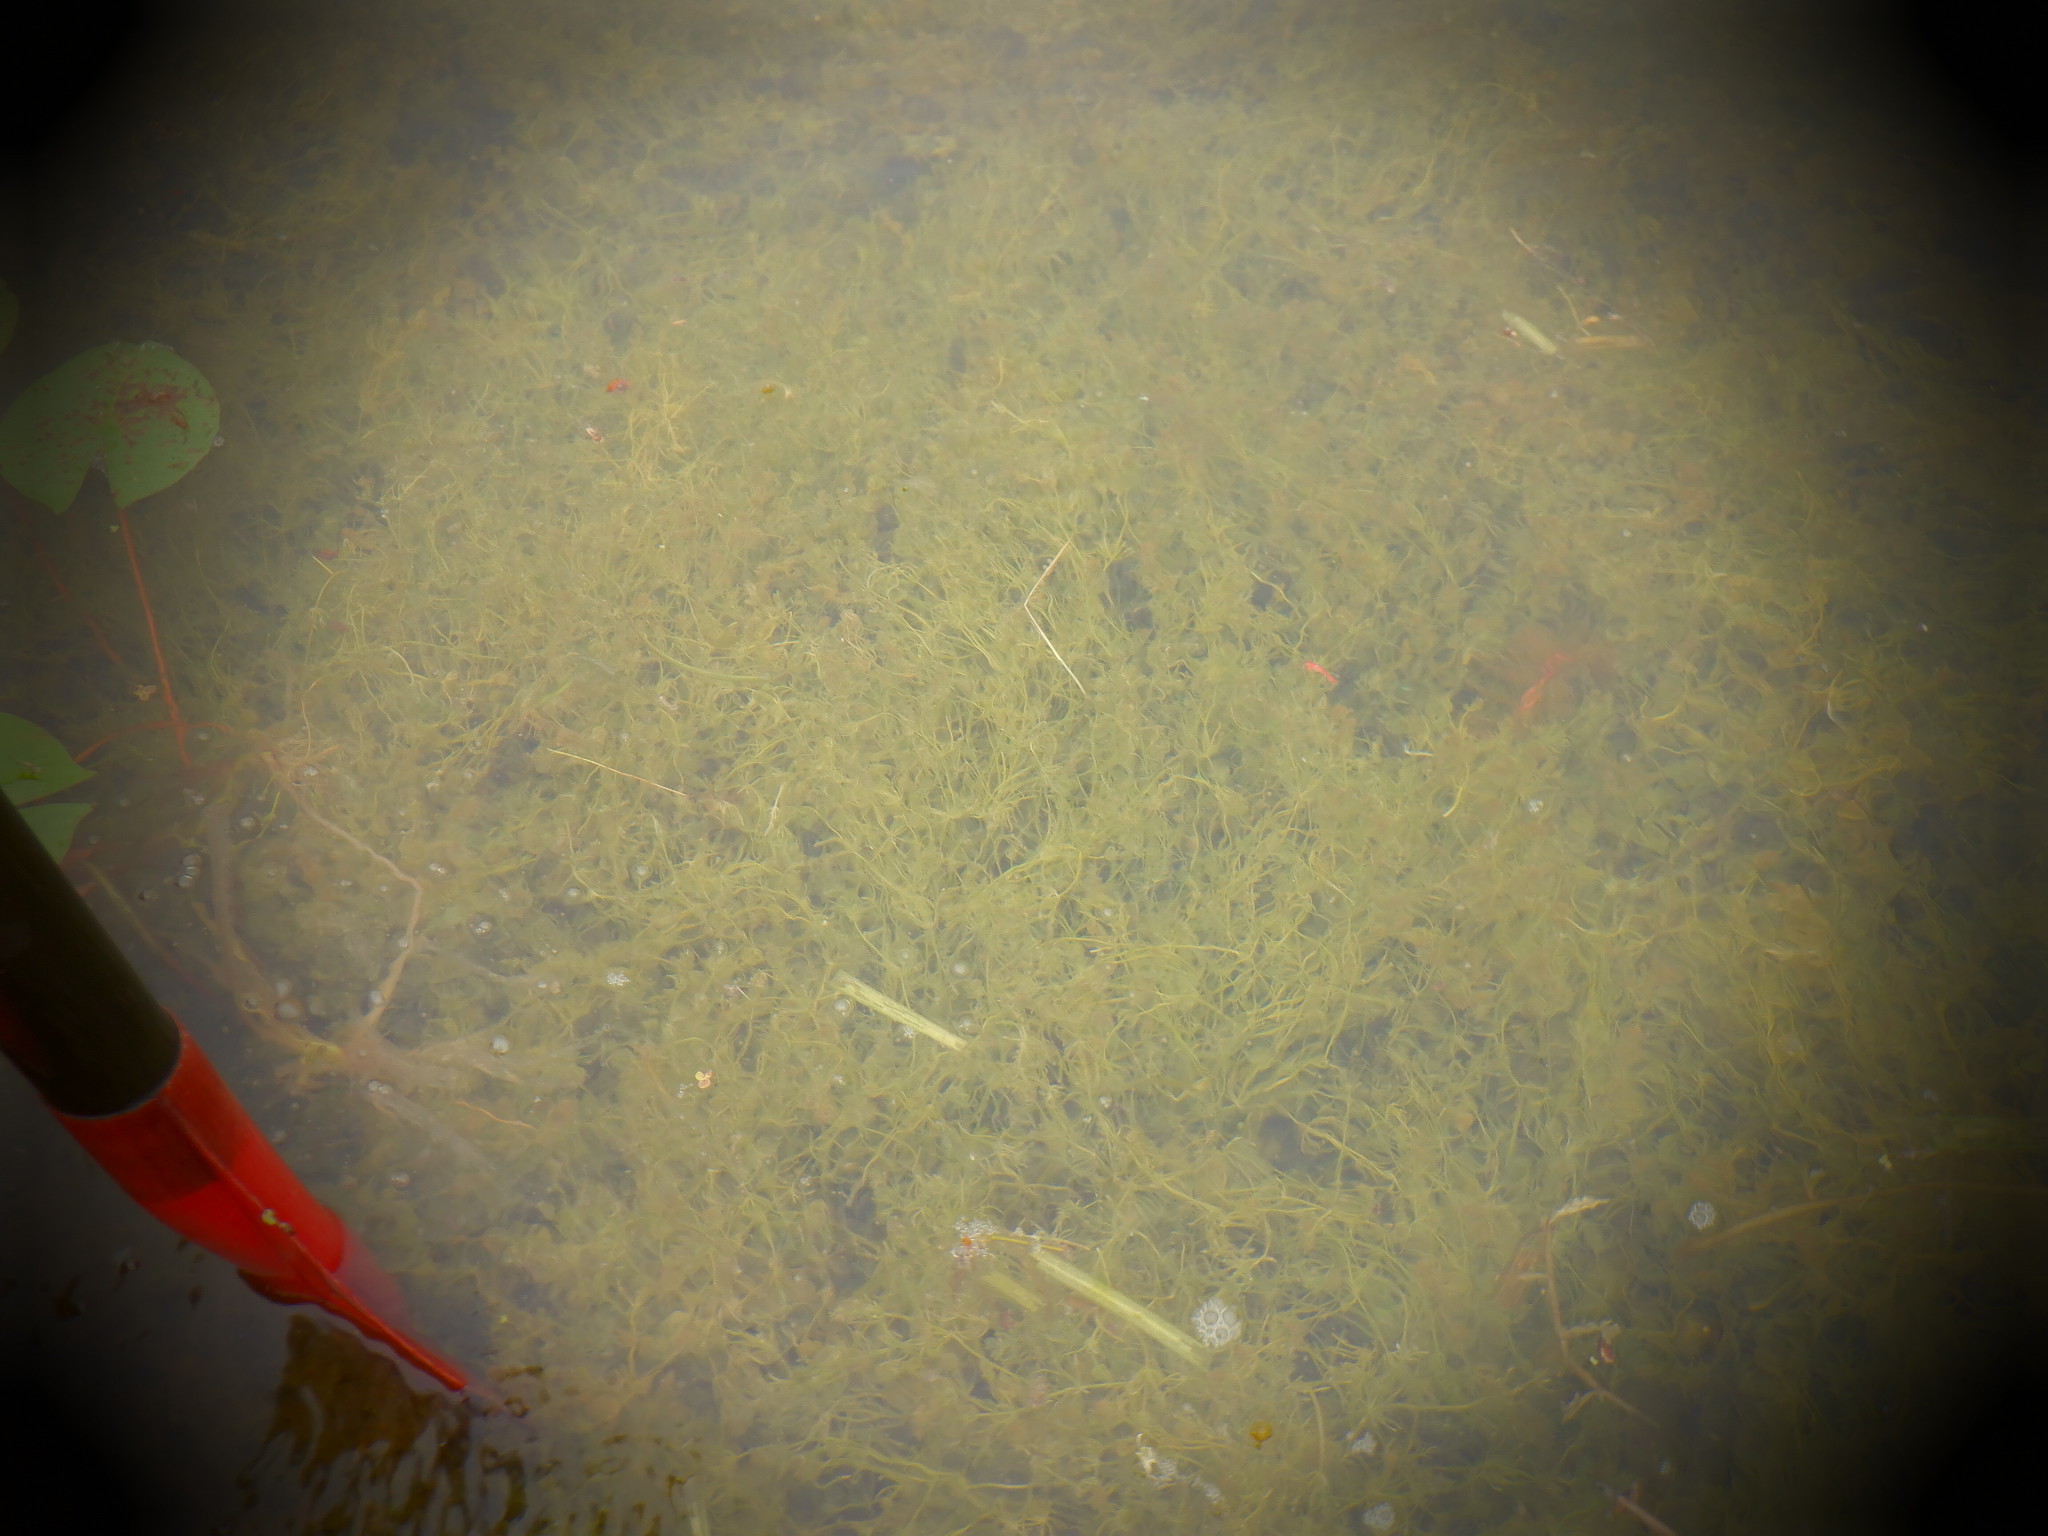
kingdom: Plantae
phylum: Charophyta
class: Charophyceae
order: Charales
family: Characeae
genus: Chara
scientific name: Chara
